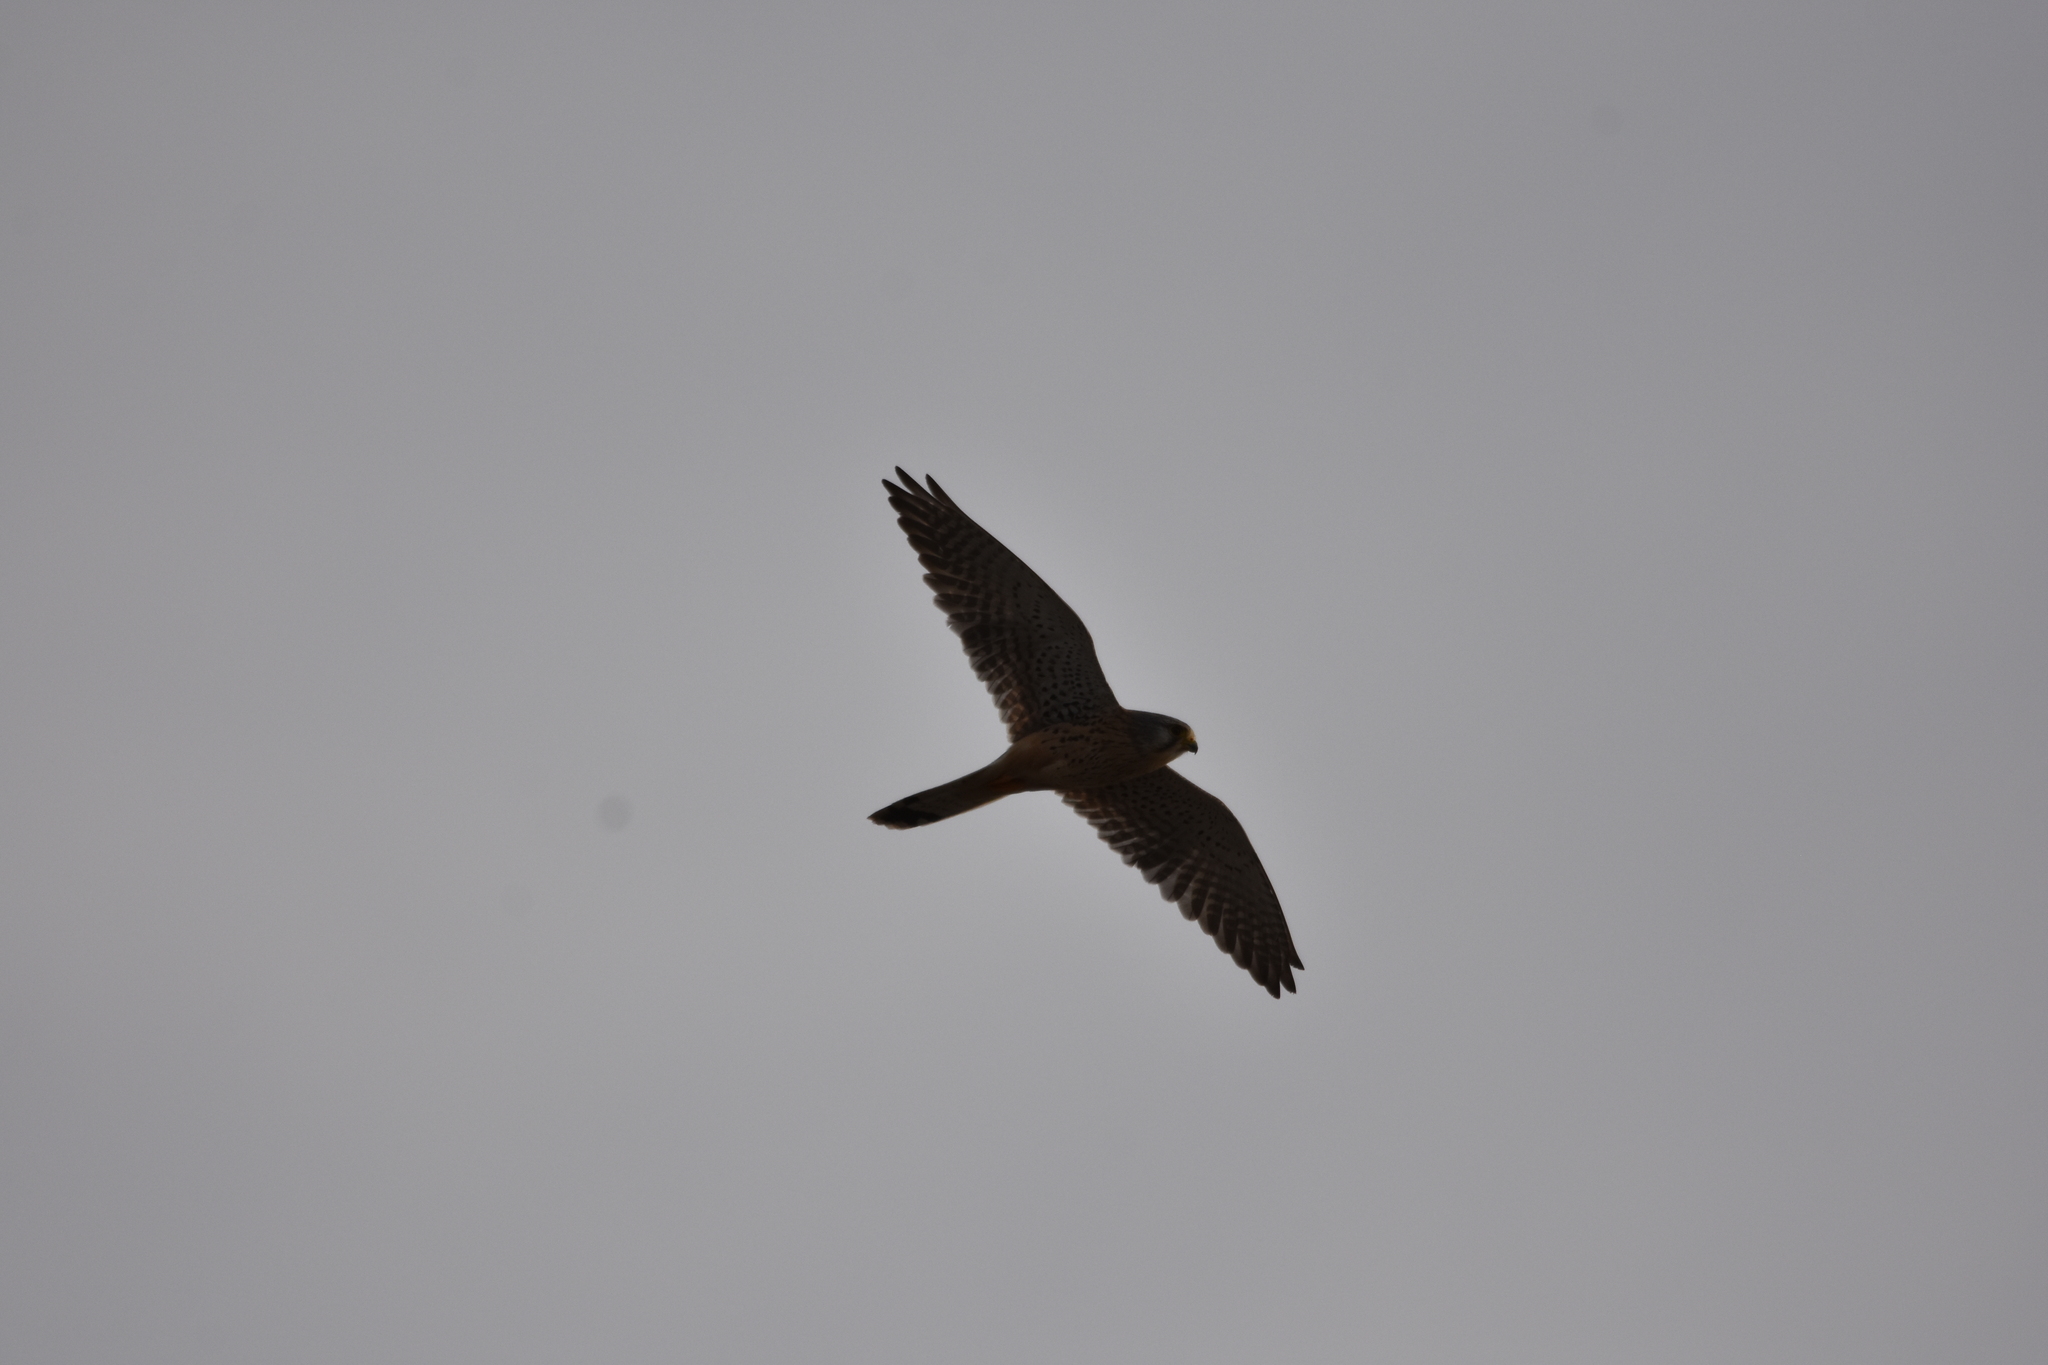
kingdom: Animalia
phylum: Chordata
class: Aves
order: Falconiformes
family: Falconidae
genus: Falco
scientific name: Falco tinnunculus
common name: Common kestrel
